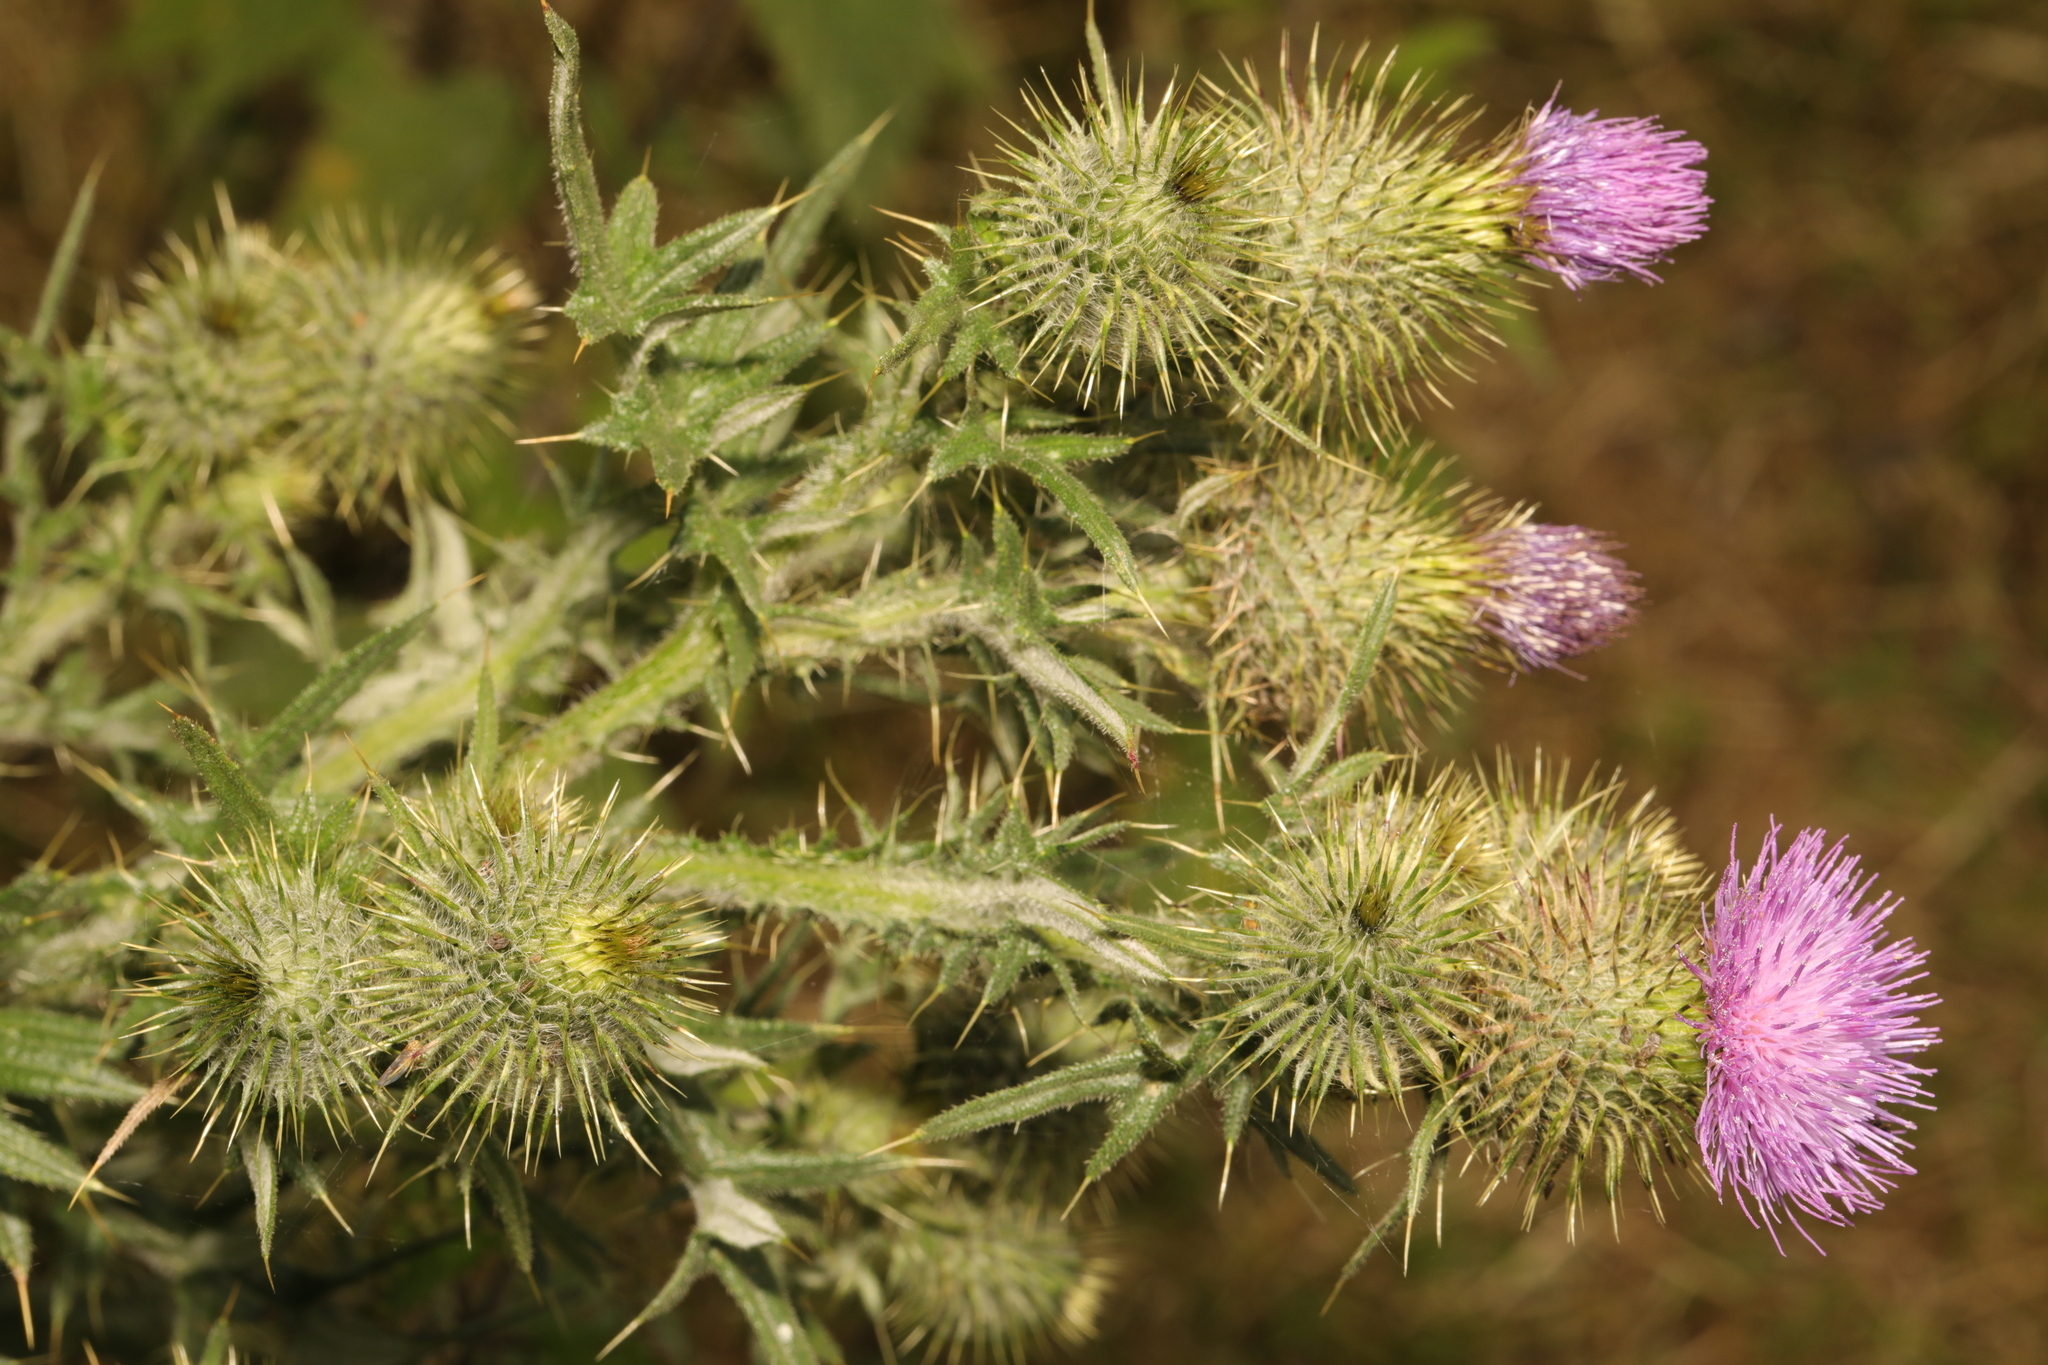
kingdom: Plantae
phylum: Tracheophyta
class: Magnoliopsida
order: Asterales
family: Asteraceae
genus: Cirsium
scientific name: Cirsium vulgare
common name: Bull thistle
